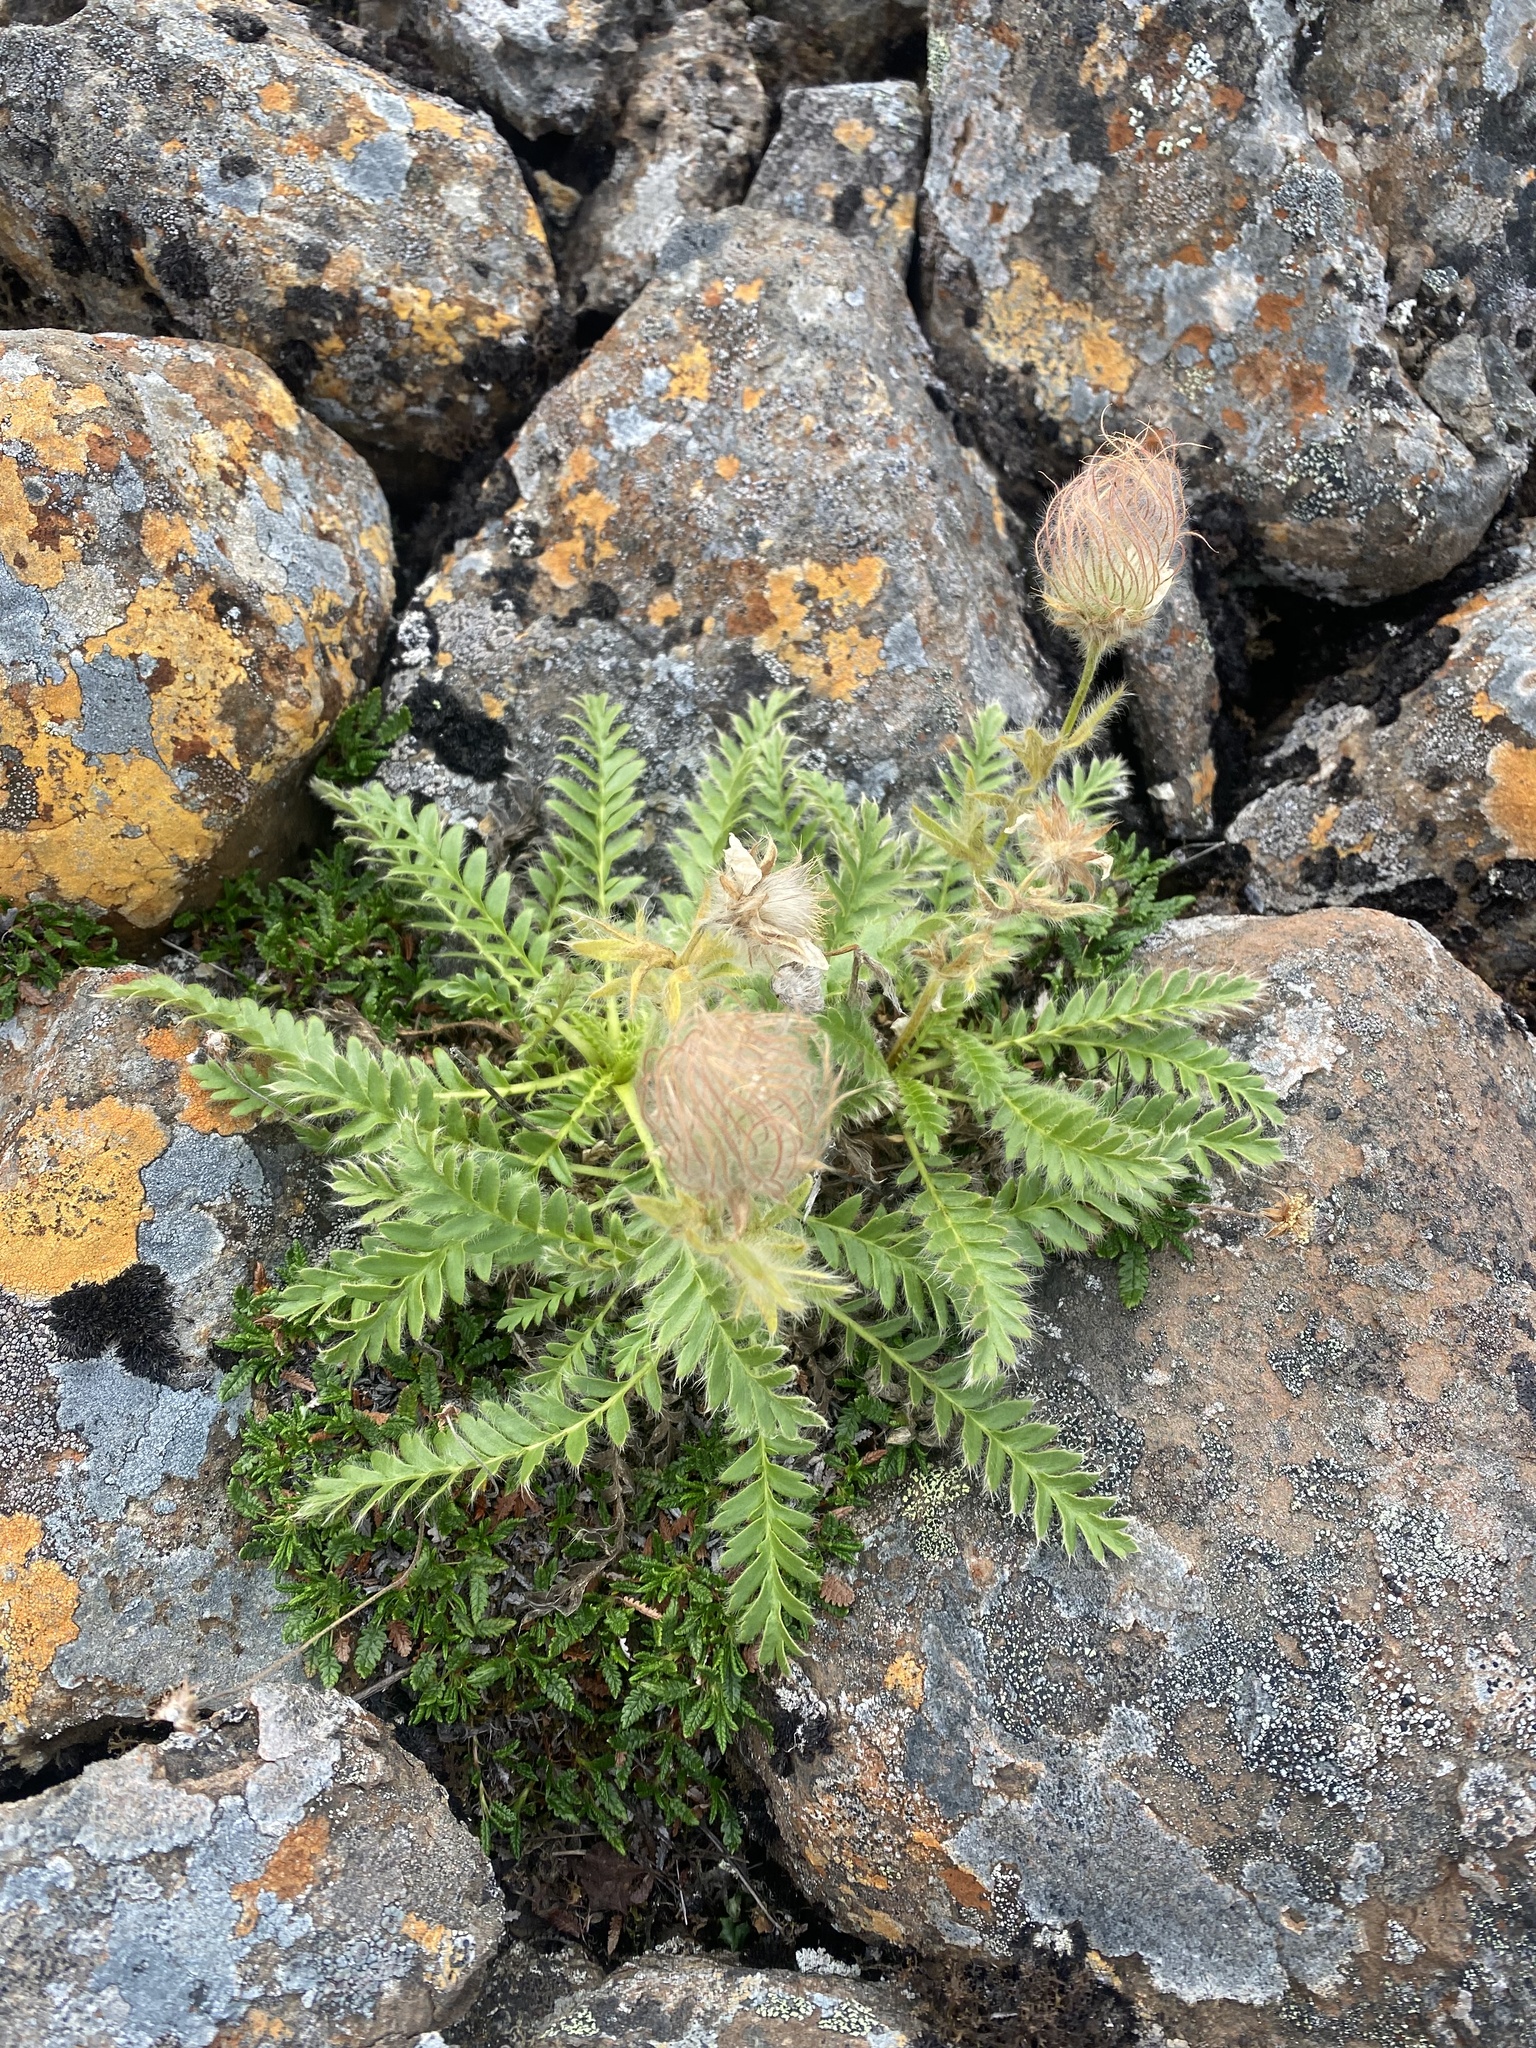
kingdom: Plantae
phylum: Tracheophyta
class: Magnoliopsida
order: Rosales
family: Rosaceae
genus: Geum
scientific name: Geum glaciale
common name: Glacier avens
